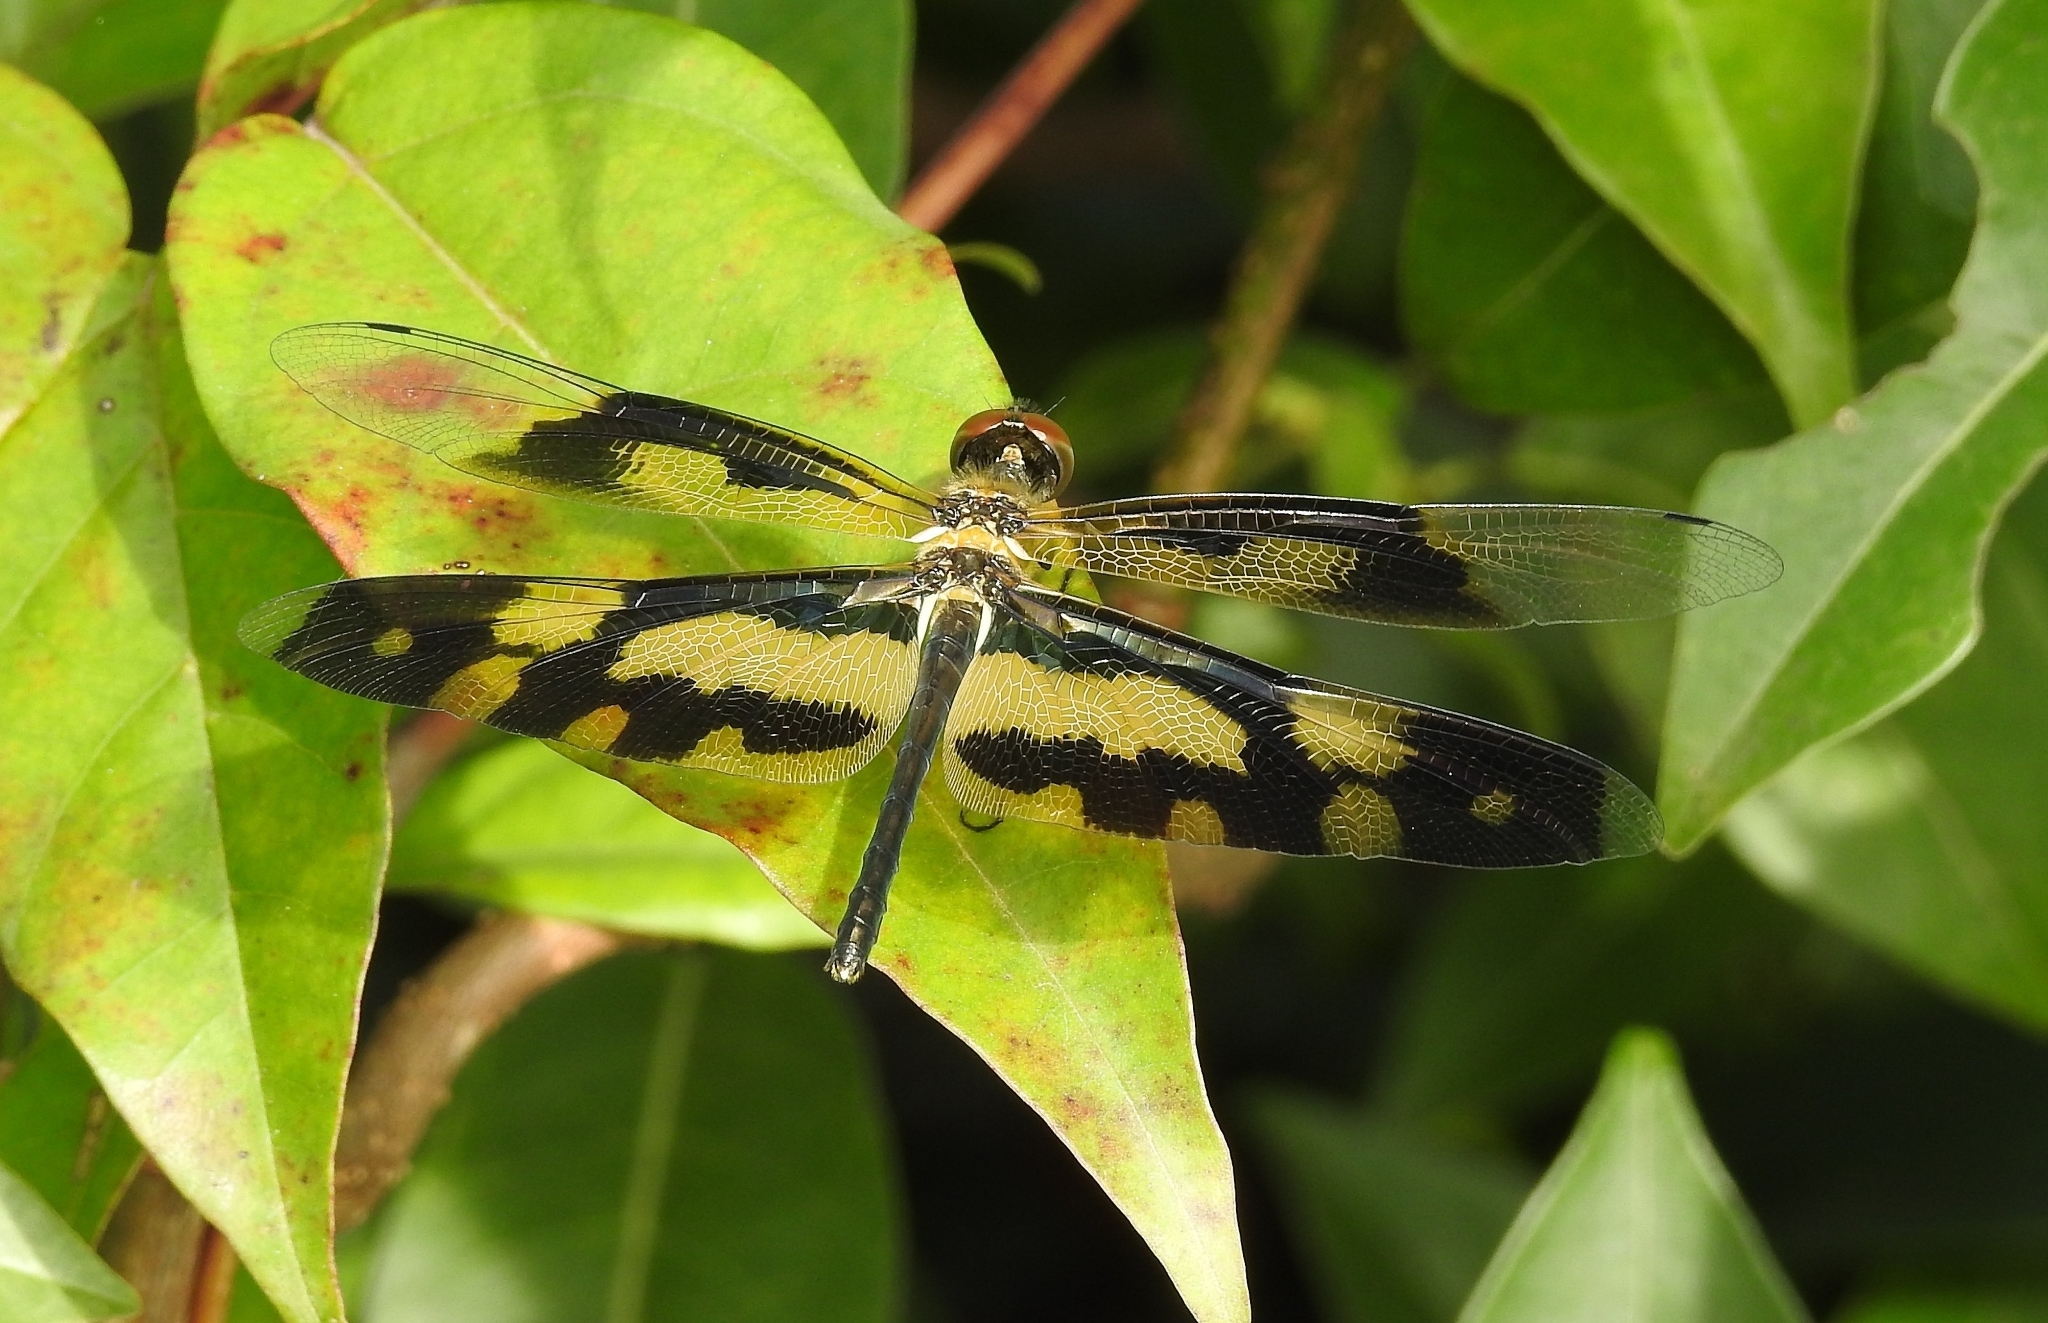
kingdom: Animalia
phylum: Arthropoda
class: Insecta
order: Odonata
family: Libellulidae
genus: Rhyothemis
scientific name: Rhyothemis variegata
